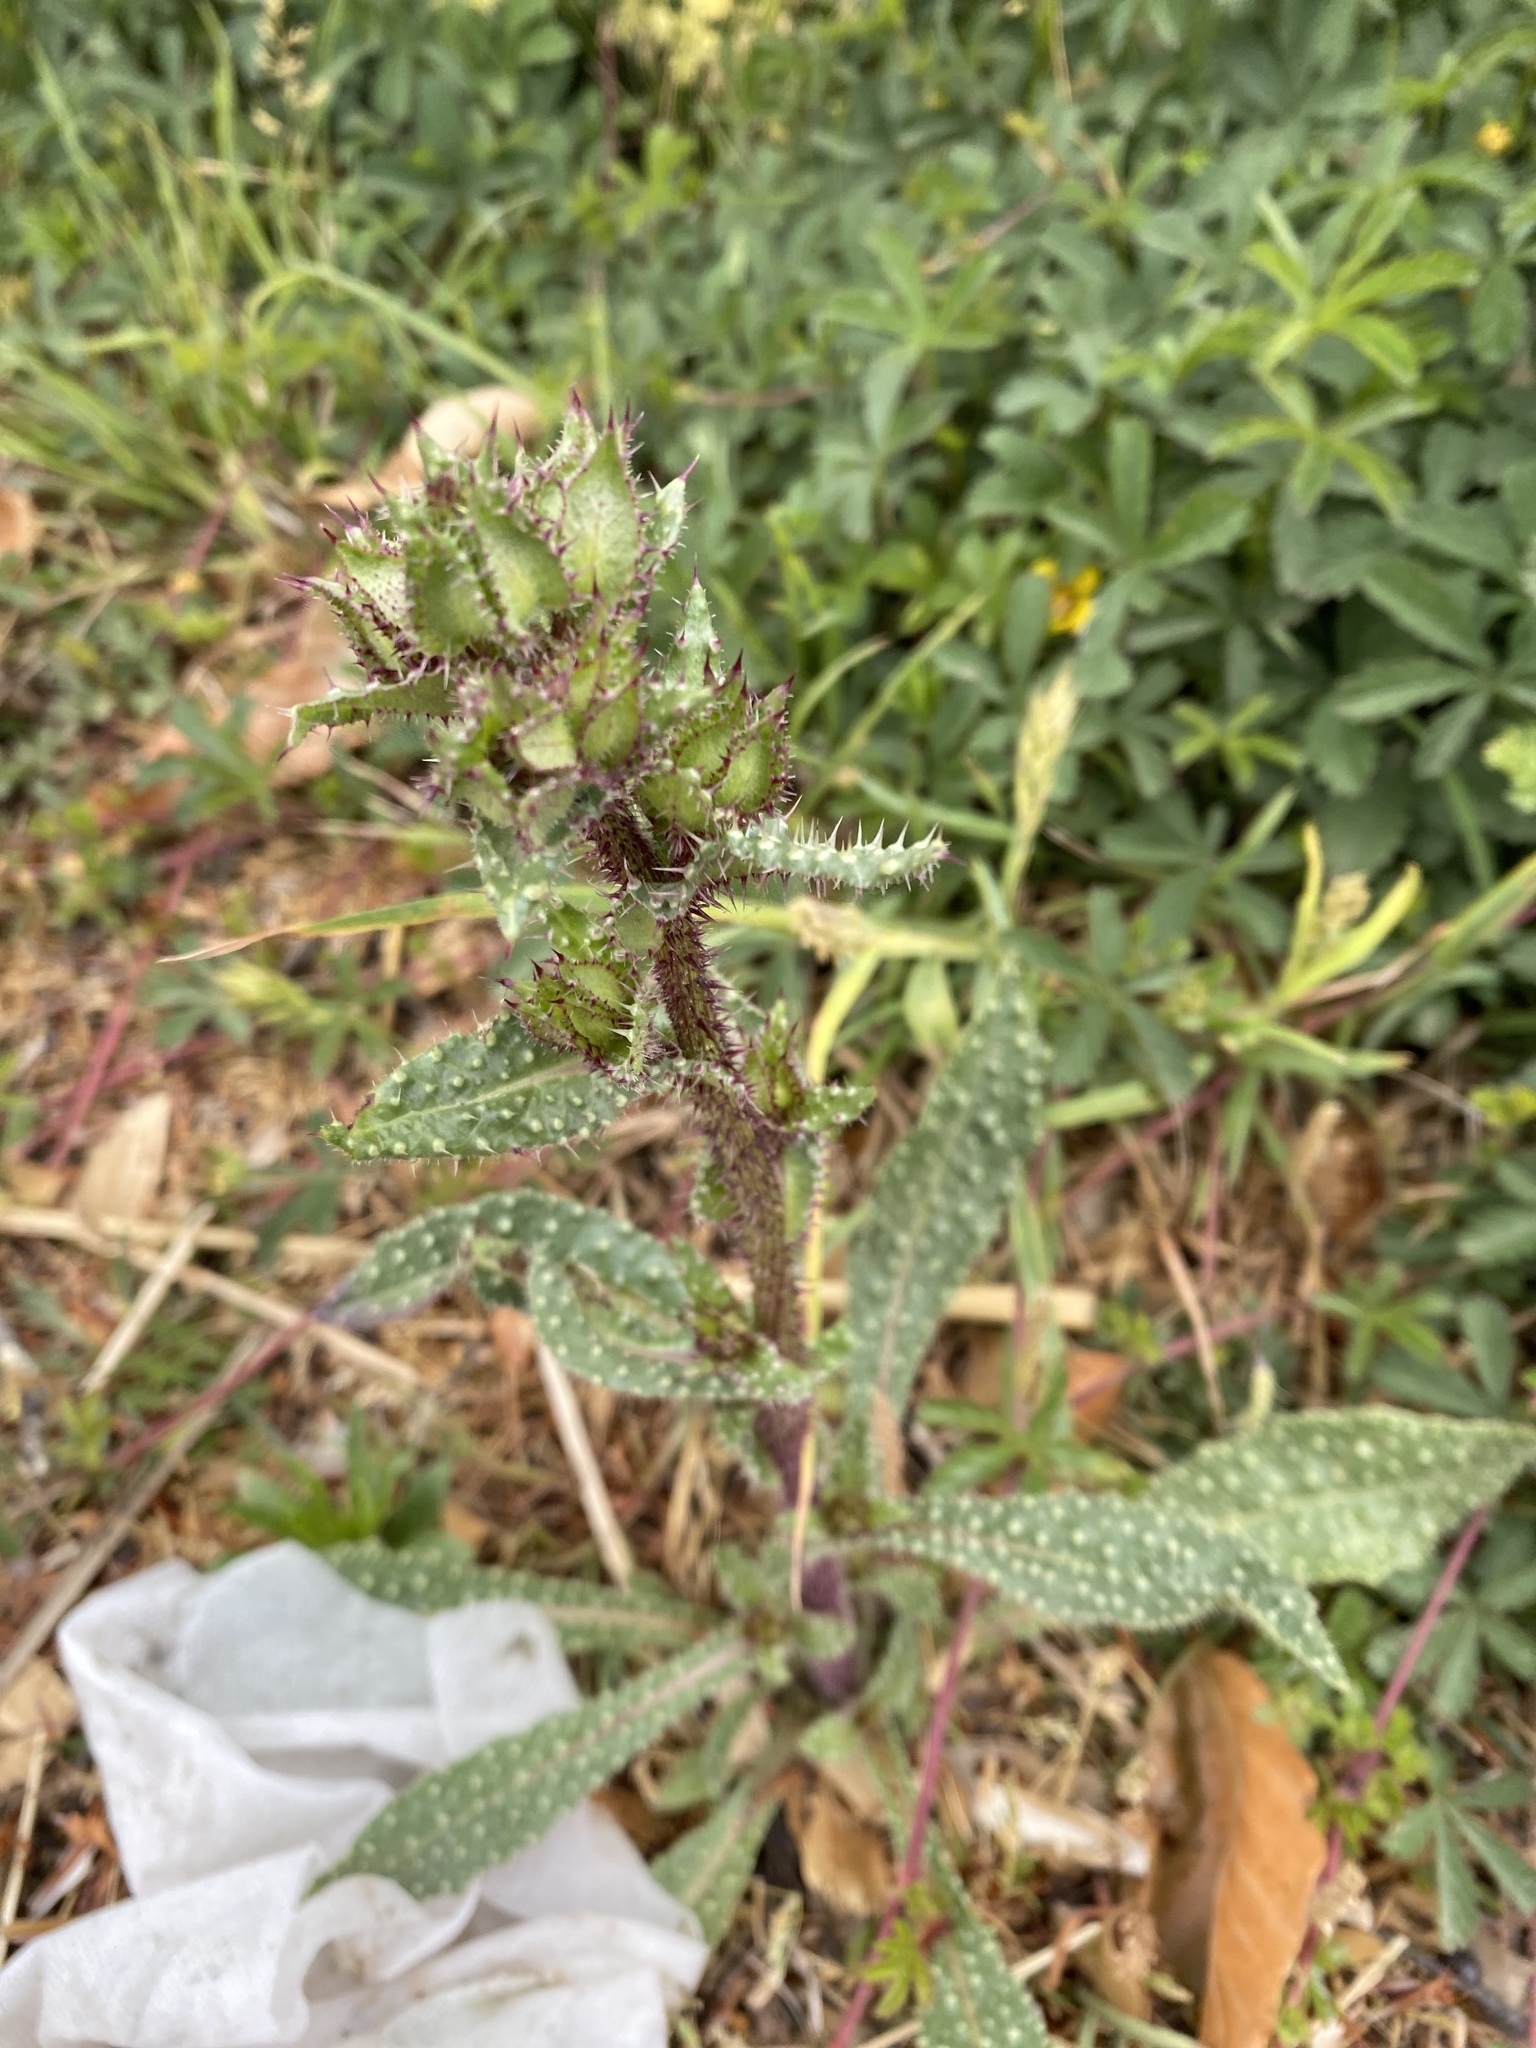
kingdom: Plantae
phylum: Tracheophyta
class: Magnoliopsida
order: Asterales
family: Asteraceae
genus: Helminthotheca
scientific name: Helminthotheca echioides
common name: Ox-tongue
